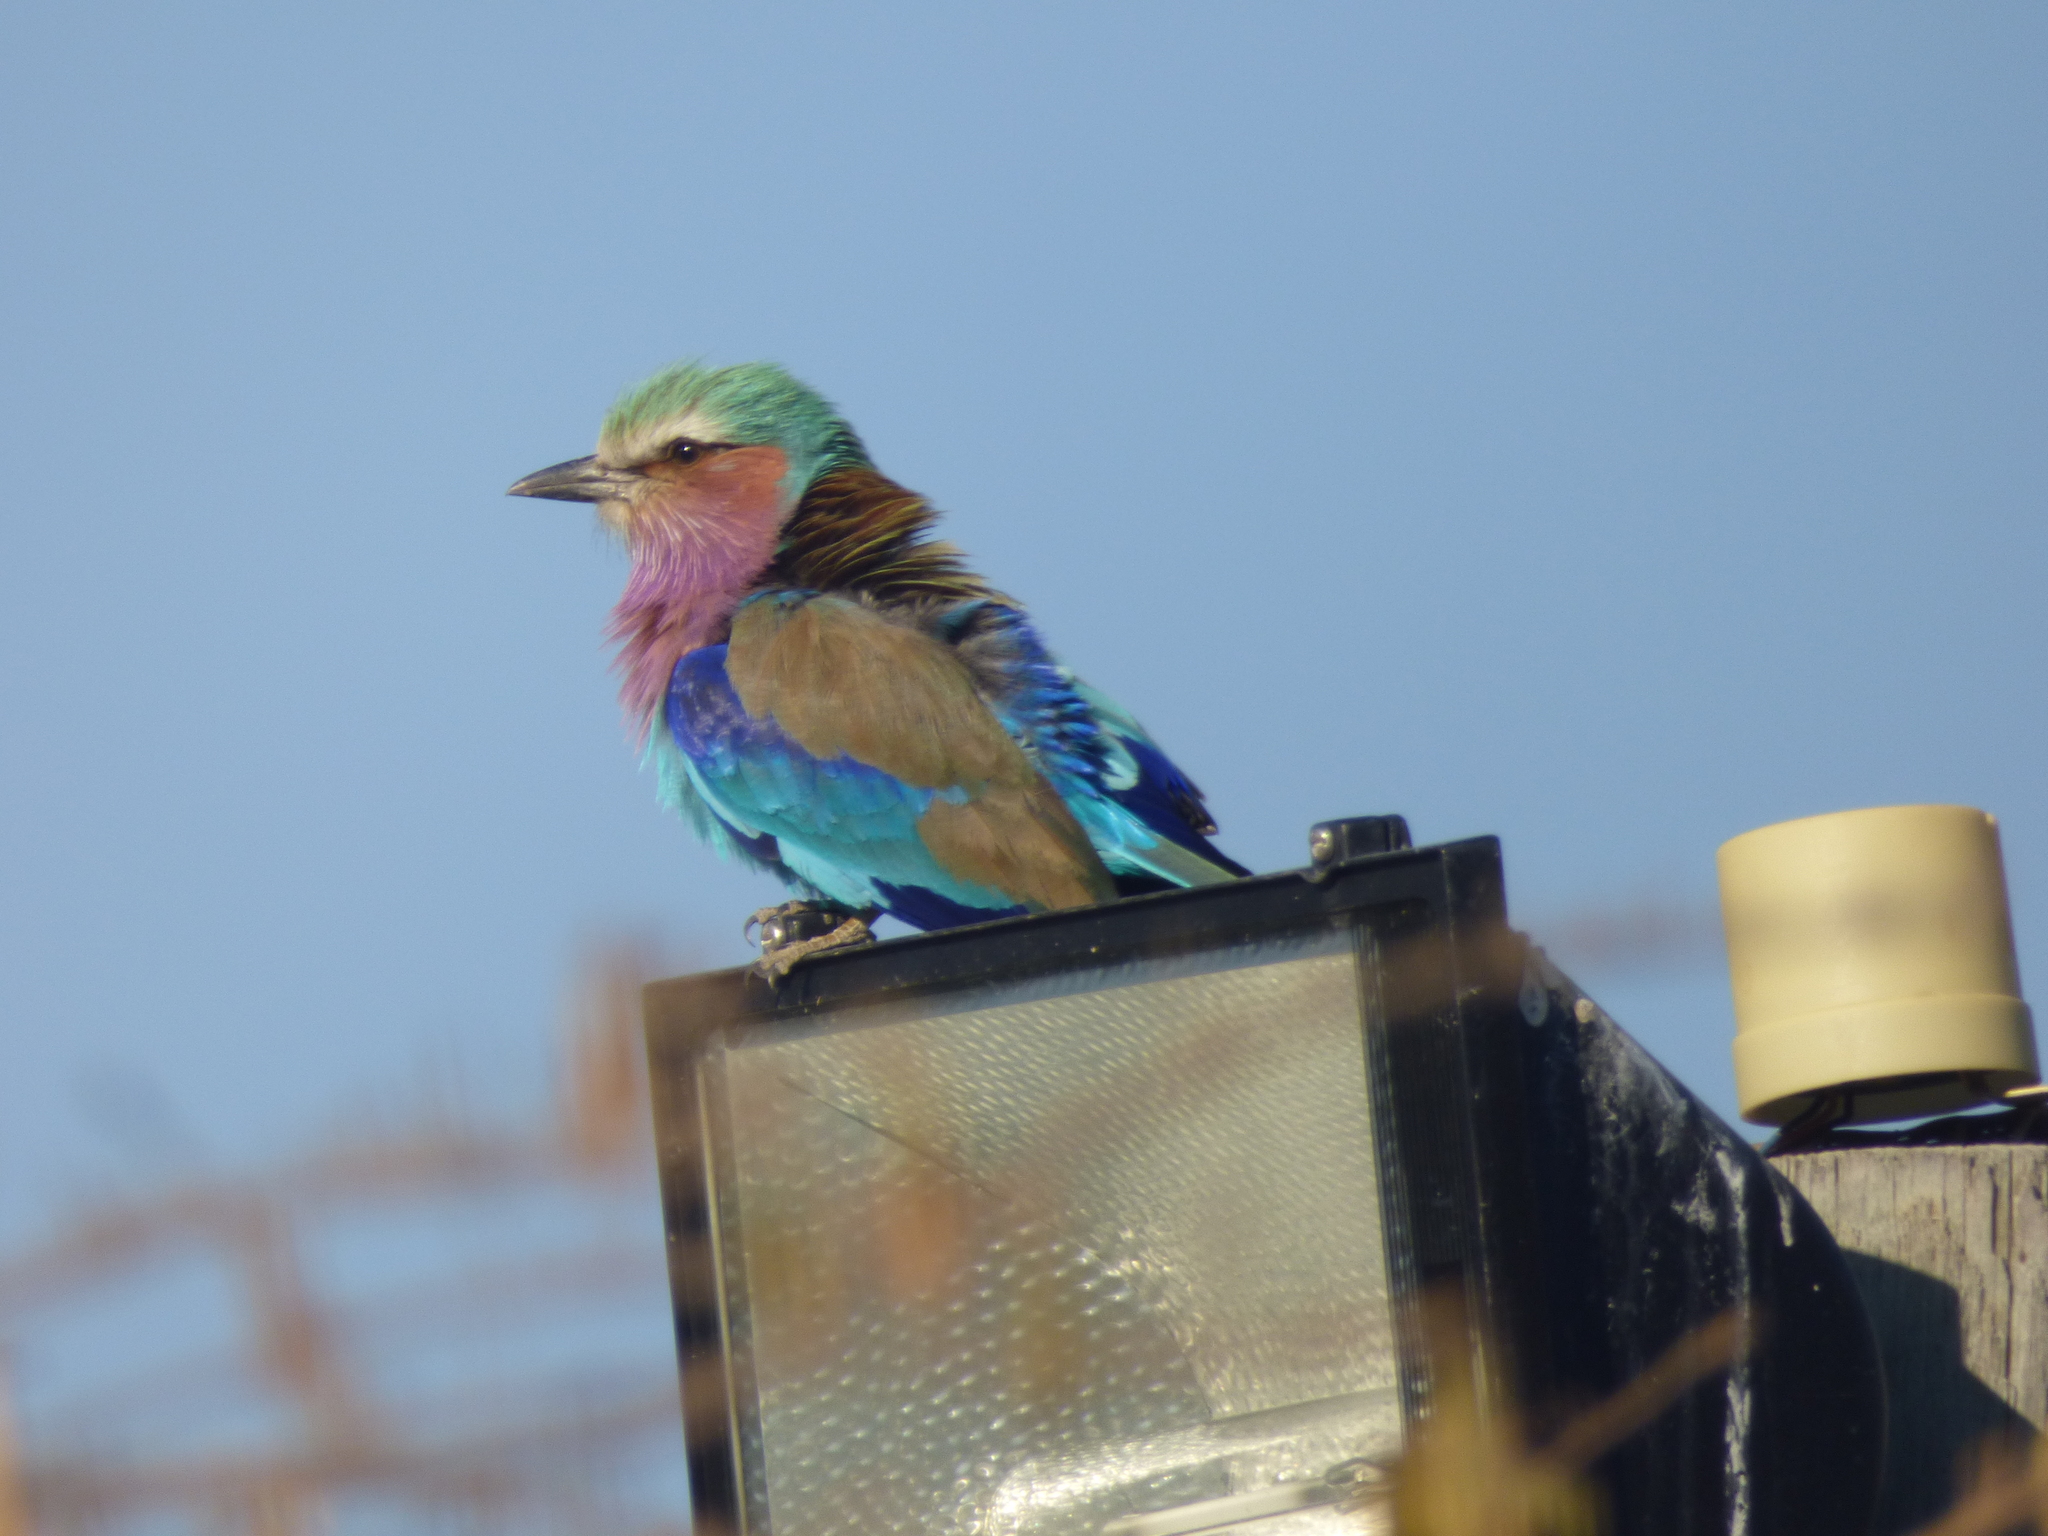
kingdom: Animalia
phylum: Chordata
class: Aves
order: Coraciiformes
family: Coraciidae
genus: Coracias
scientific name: Coracias caudatus
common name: Lilac-breasted roller
